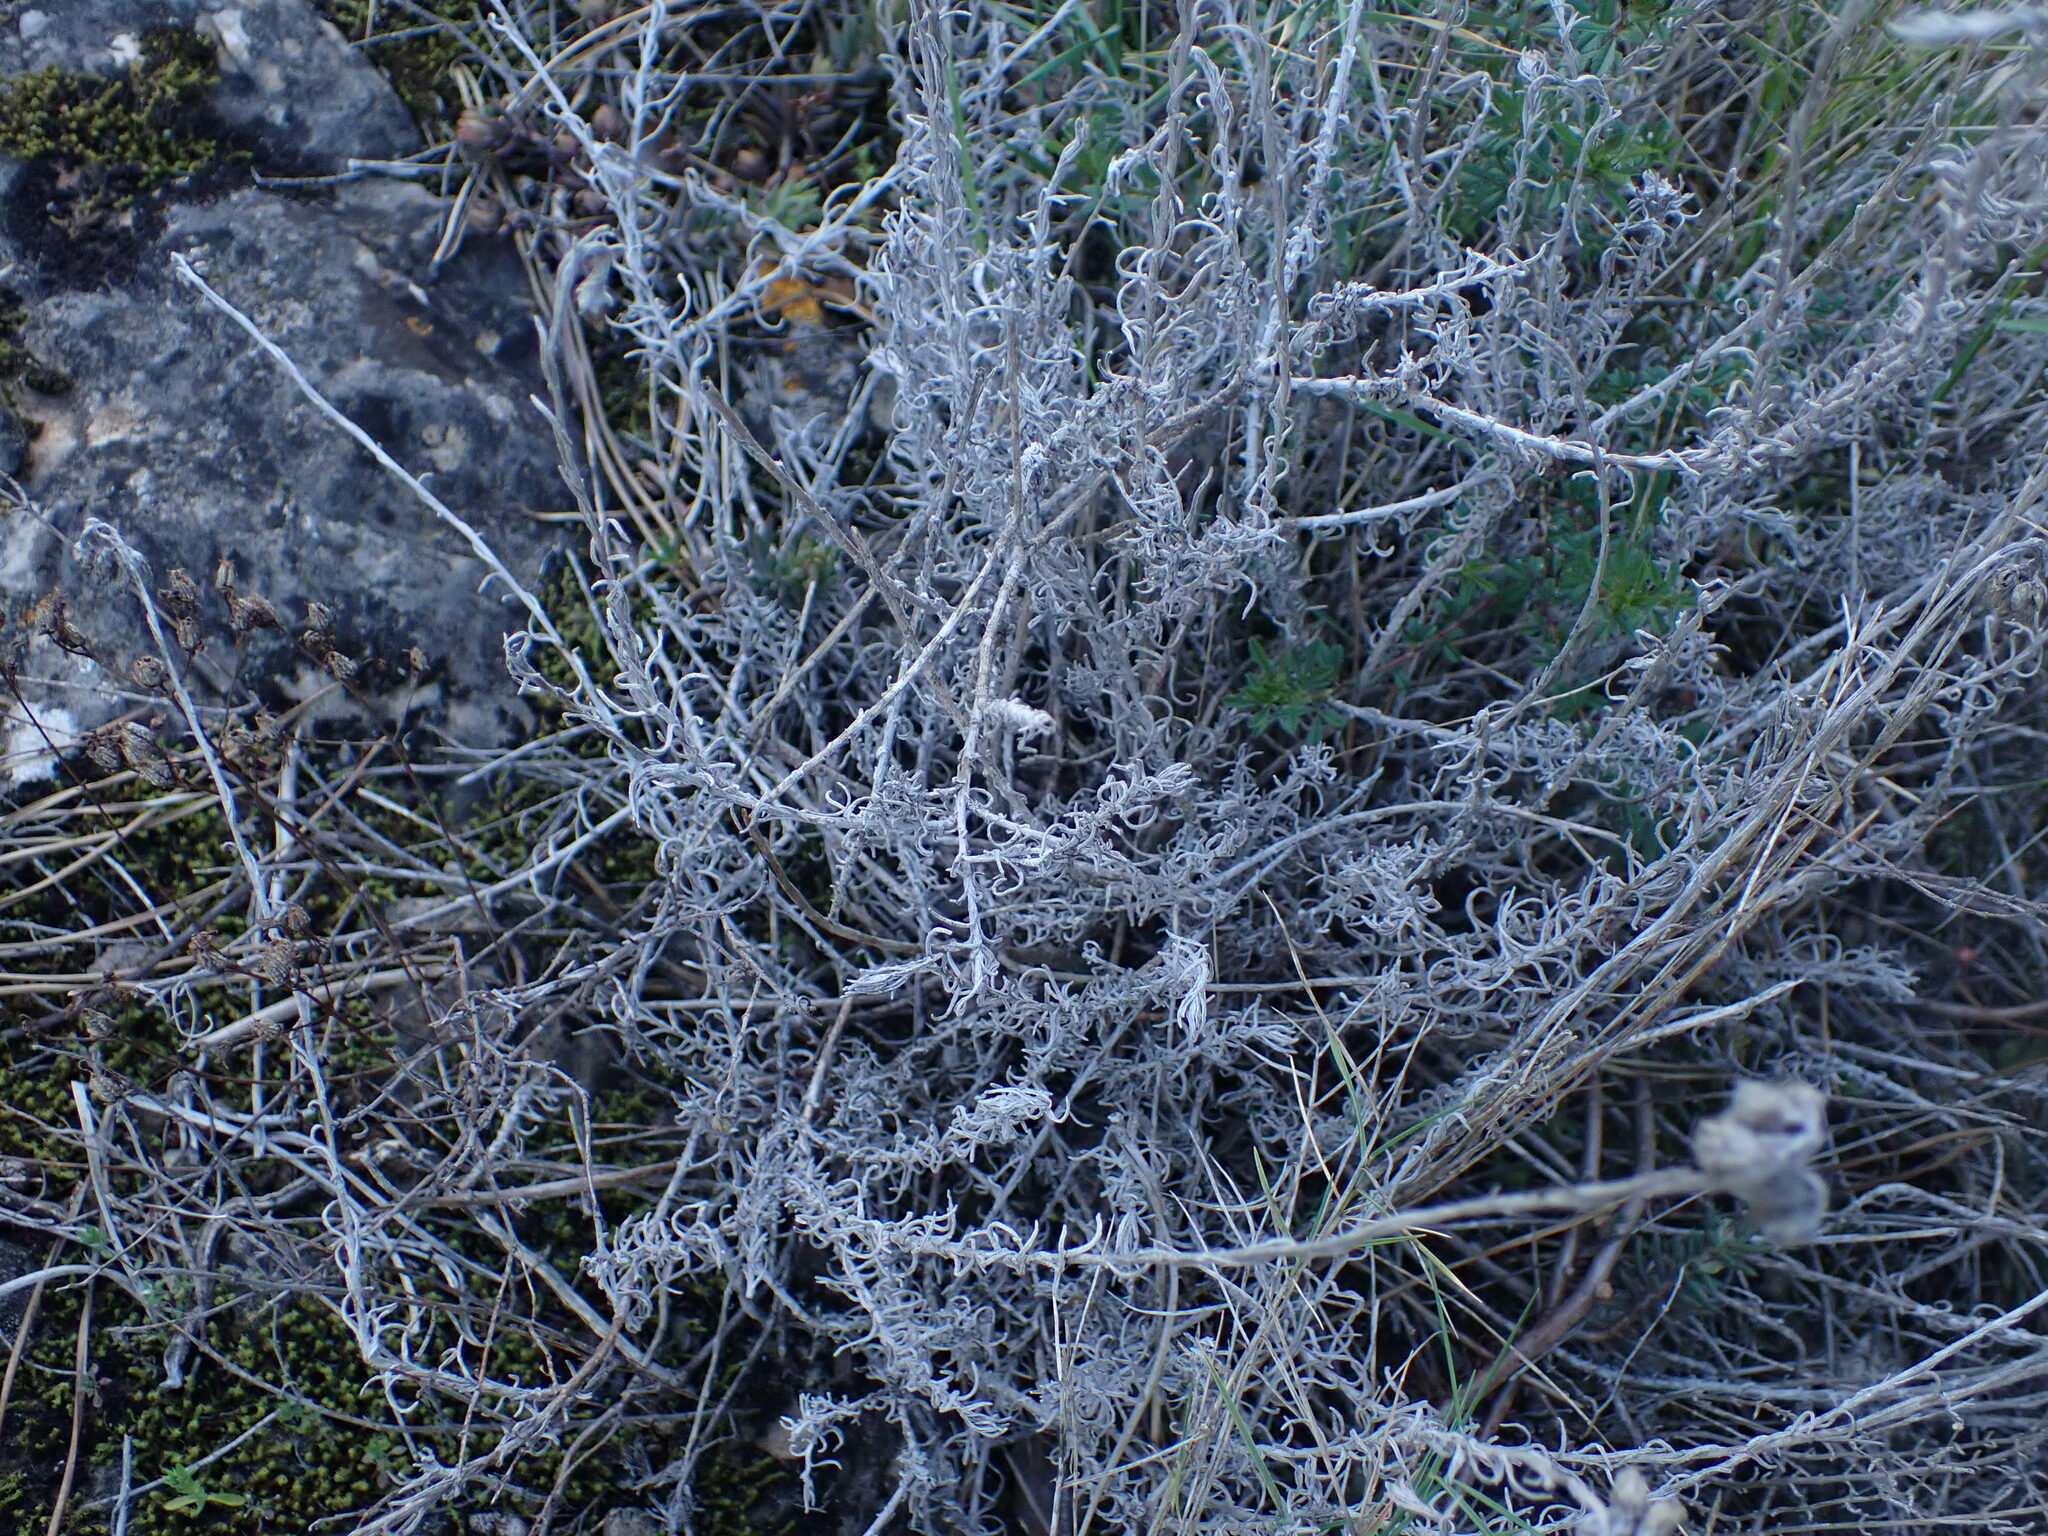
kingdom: Plantae
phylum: Tracheophyta
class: Magnoliopsida
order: Asterales
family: Asteraceae
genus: Helichrysum
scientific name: Helichrysum stoechas
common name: Goldilocks
